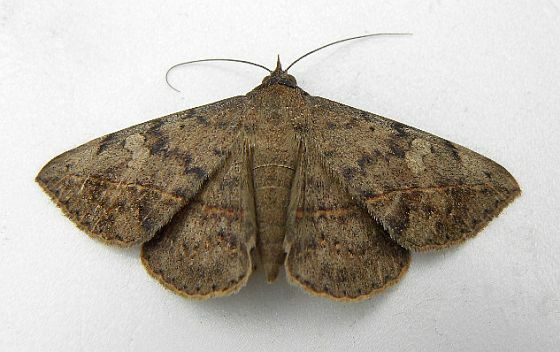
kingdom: Animalia
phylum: Arthropoda
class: Insecta
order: Lepidoptera
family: Erebidae
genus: Anticarsia
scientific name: Anticarsia gemmatalis
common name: Cutworm moth
